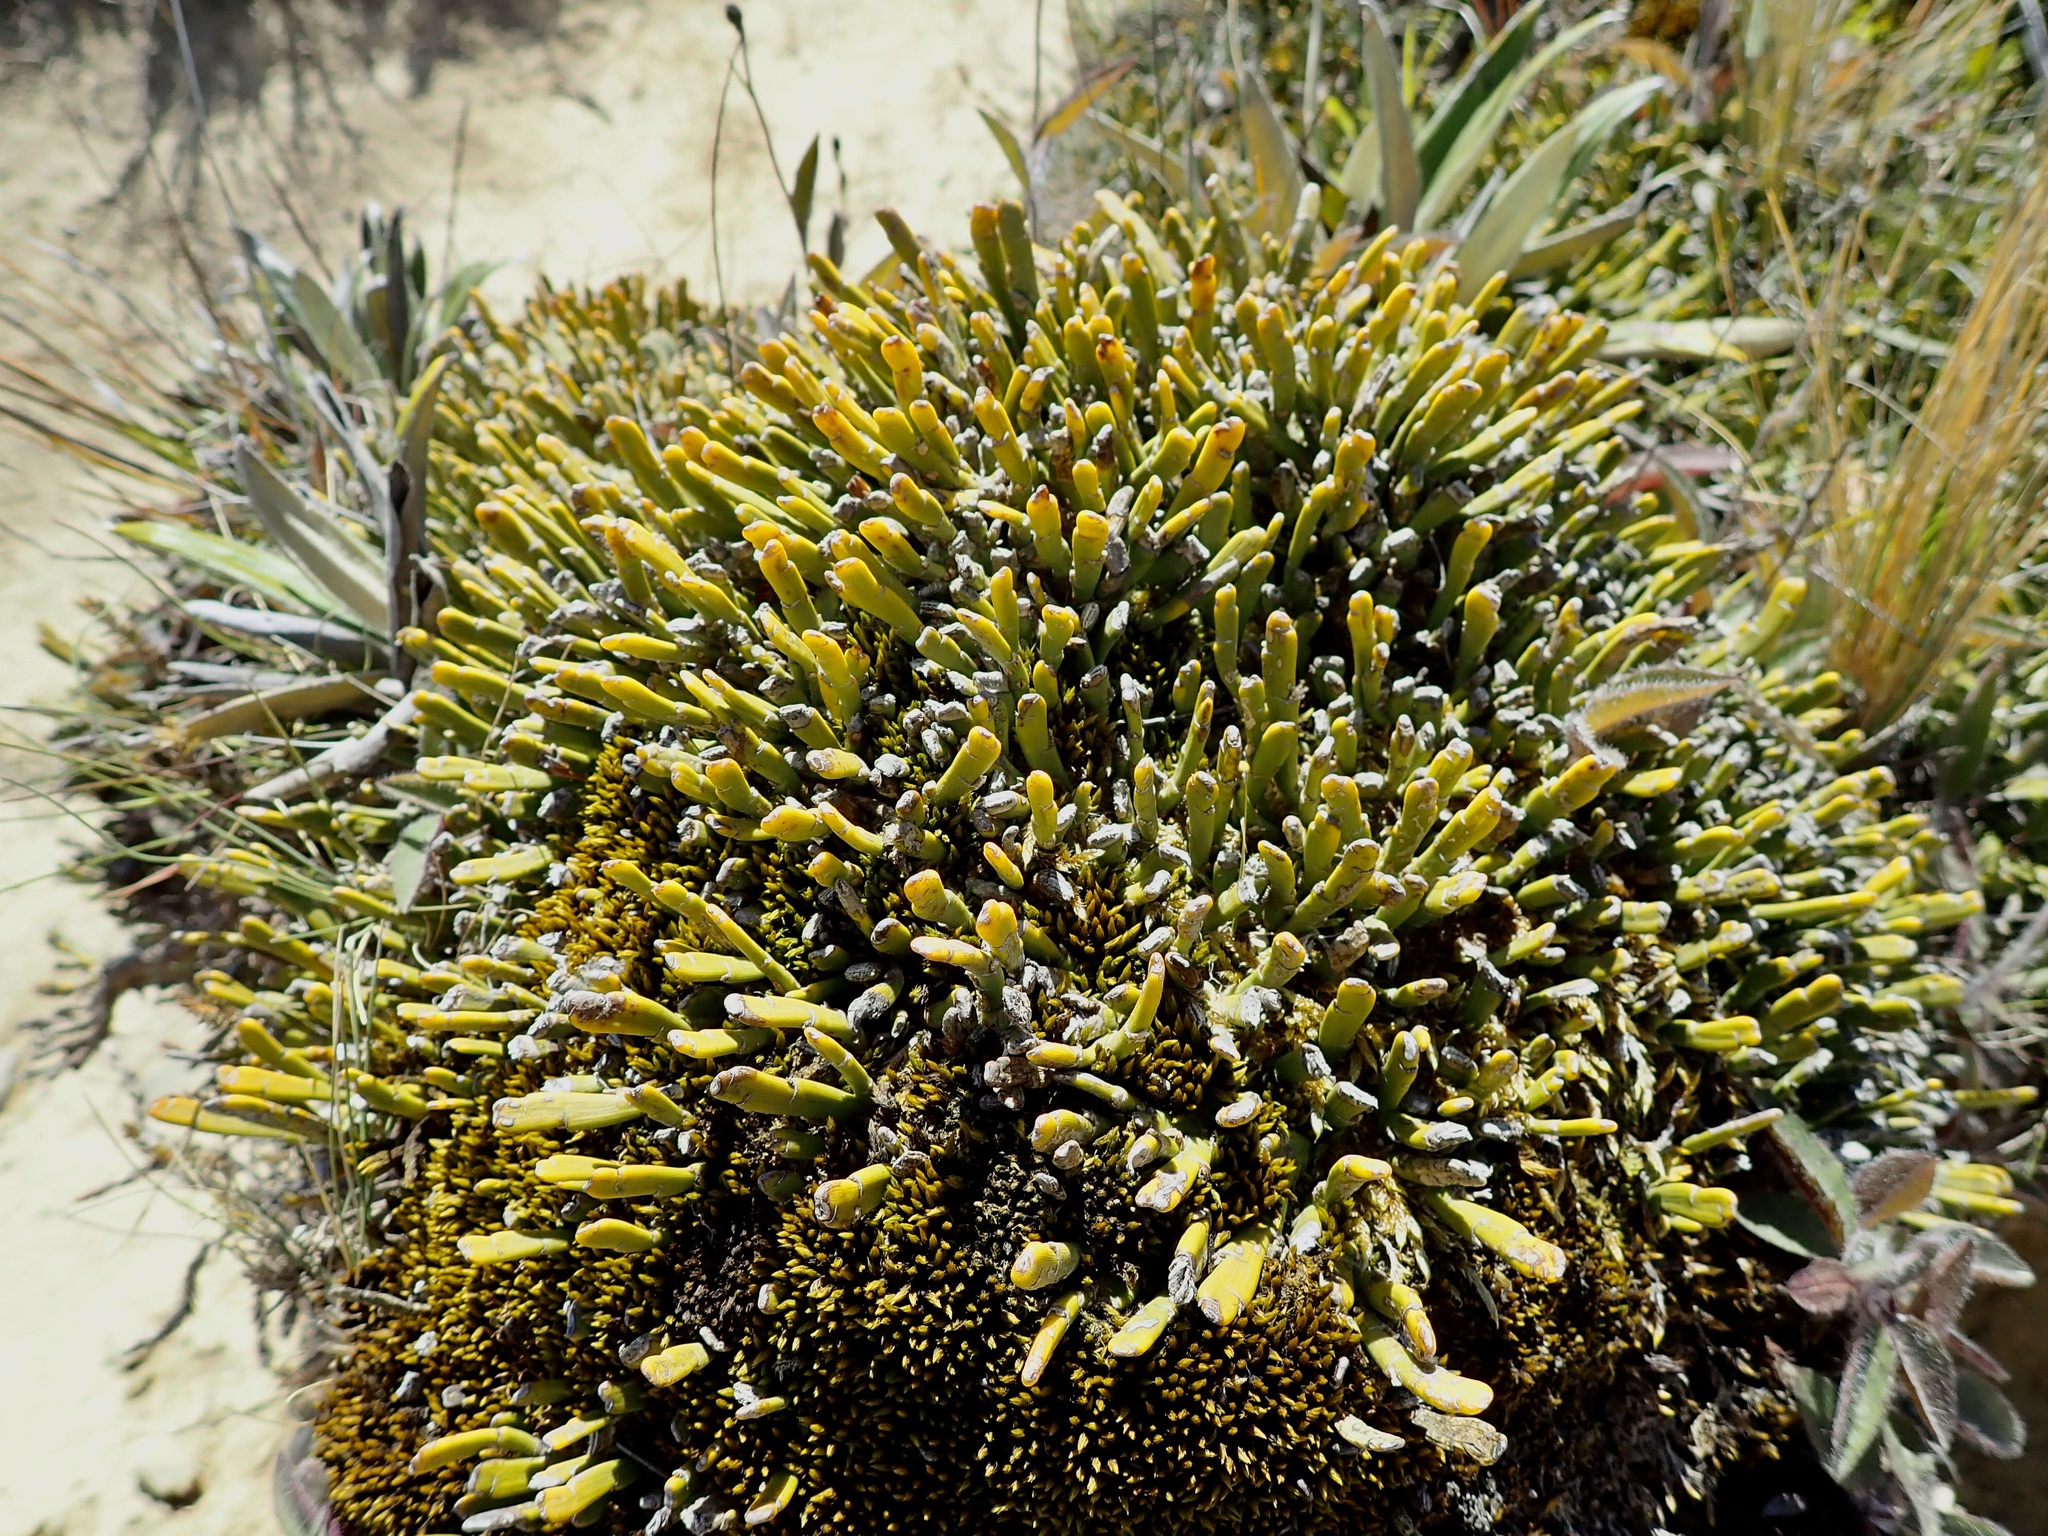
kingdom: Plantae
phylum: Tracheophyta
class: Magnoliopsida
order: Fabales
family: Fabaceae
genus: Carmichaelia
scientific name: Carmichaelia monroi
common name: Stout dwarf broom
